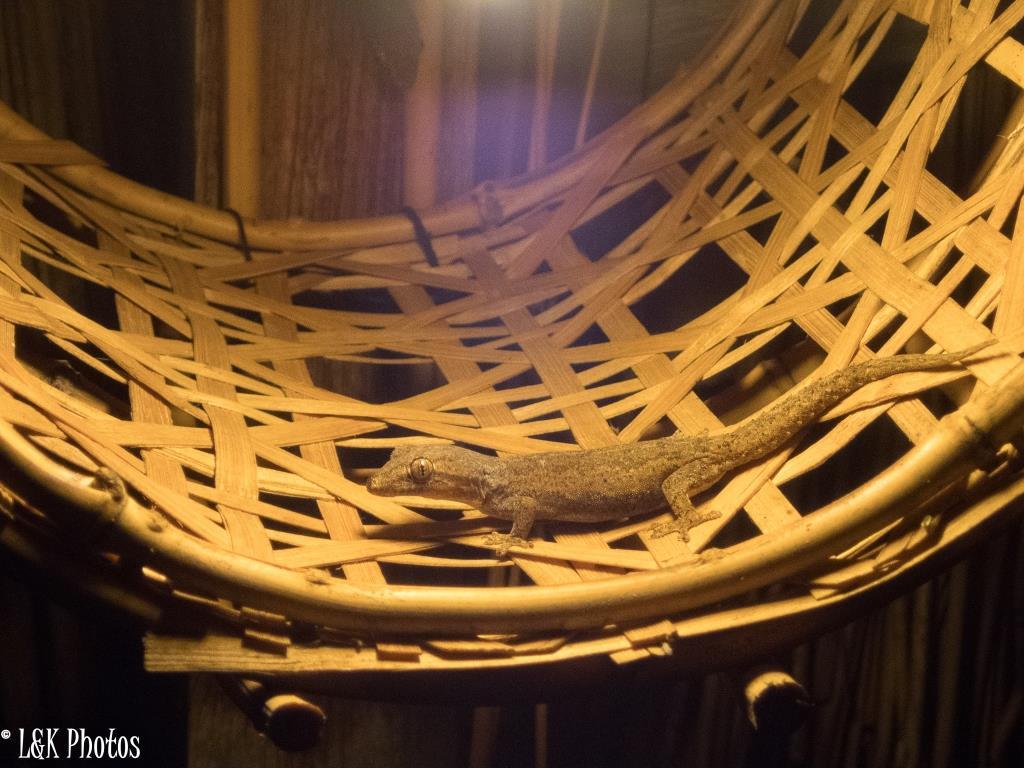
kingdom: Animalia
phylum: Chordata
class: Squamata
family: Gekkonidae
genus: Hemidactylus
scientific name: Hemidactylus frenatus
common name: Common house gecko
